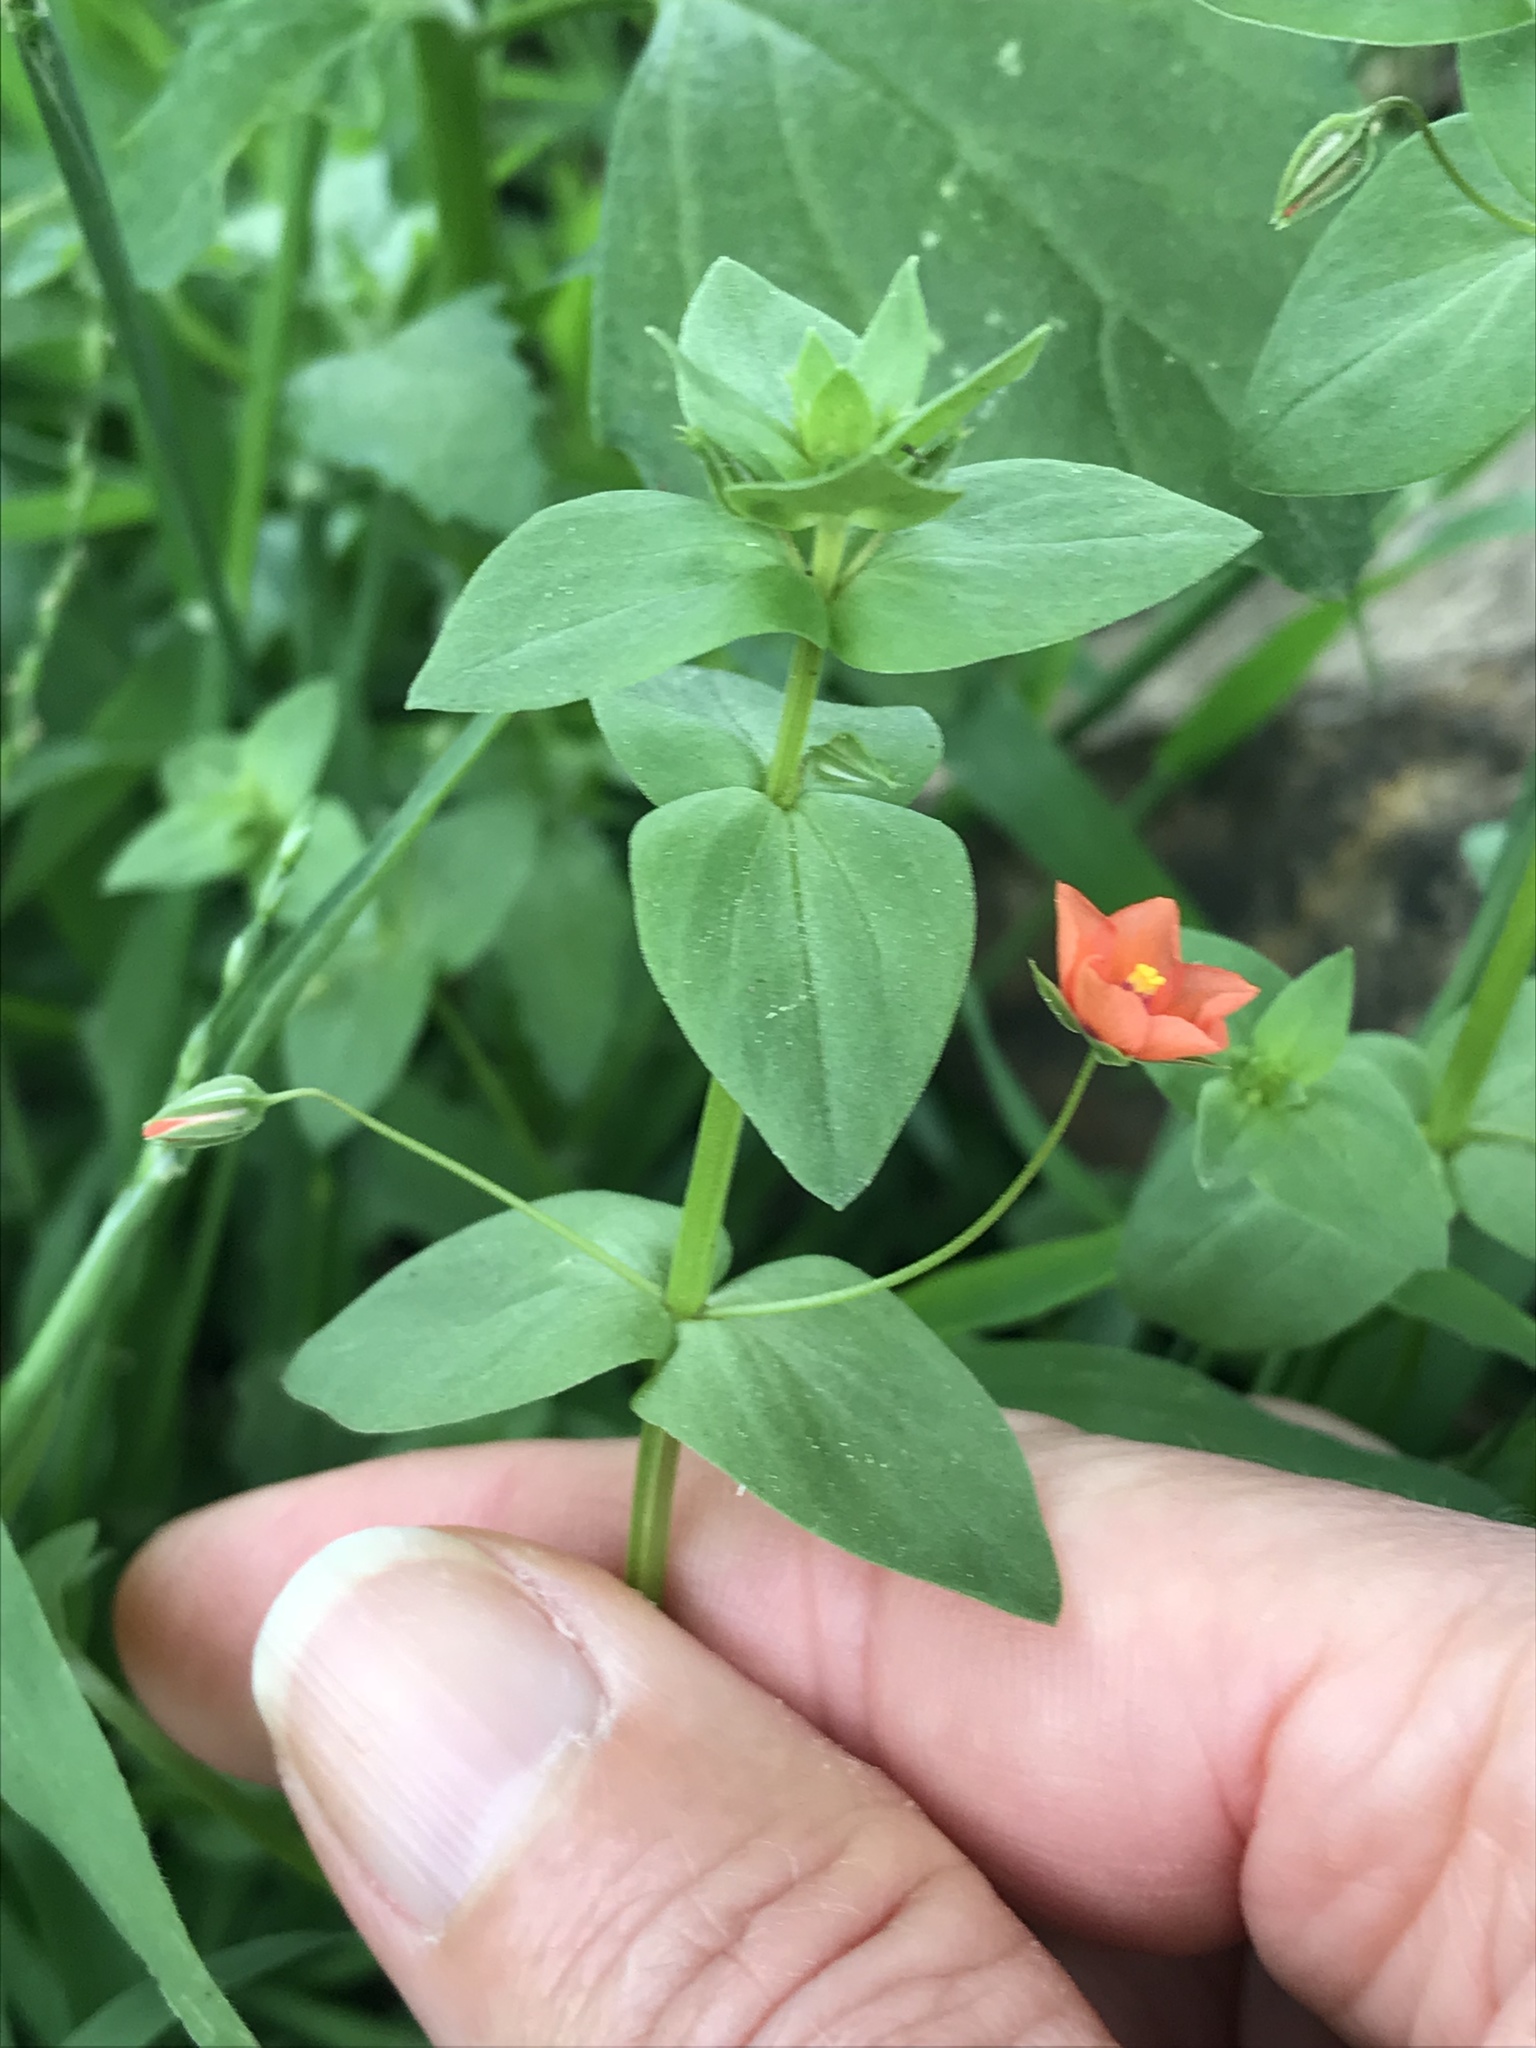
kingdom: Plantae
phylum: Tracheophyta
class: Magnoliopsida
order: Ericales
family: Primulaceae
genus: Lysimachia
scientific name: Lysimachia arvensis
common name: Scarlet pimpernel
